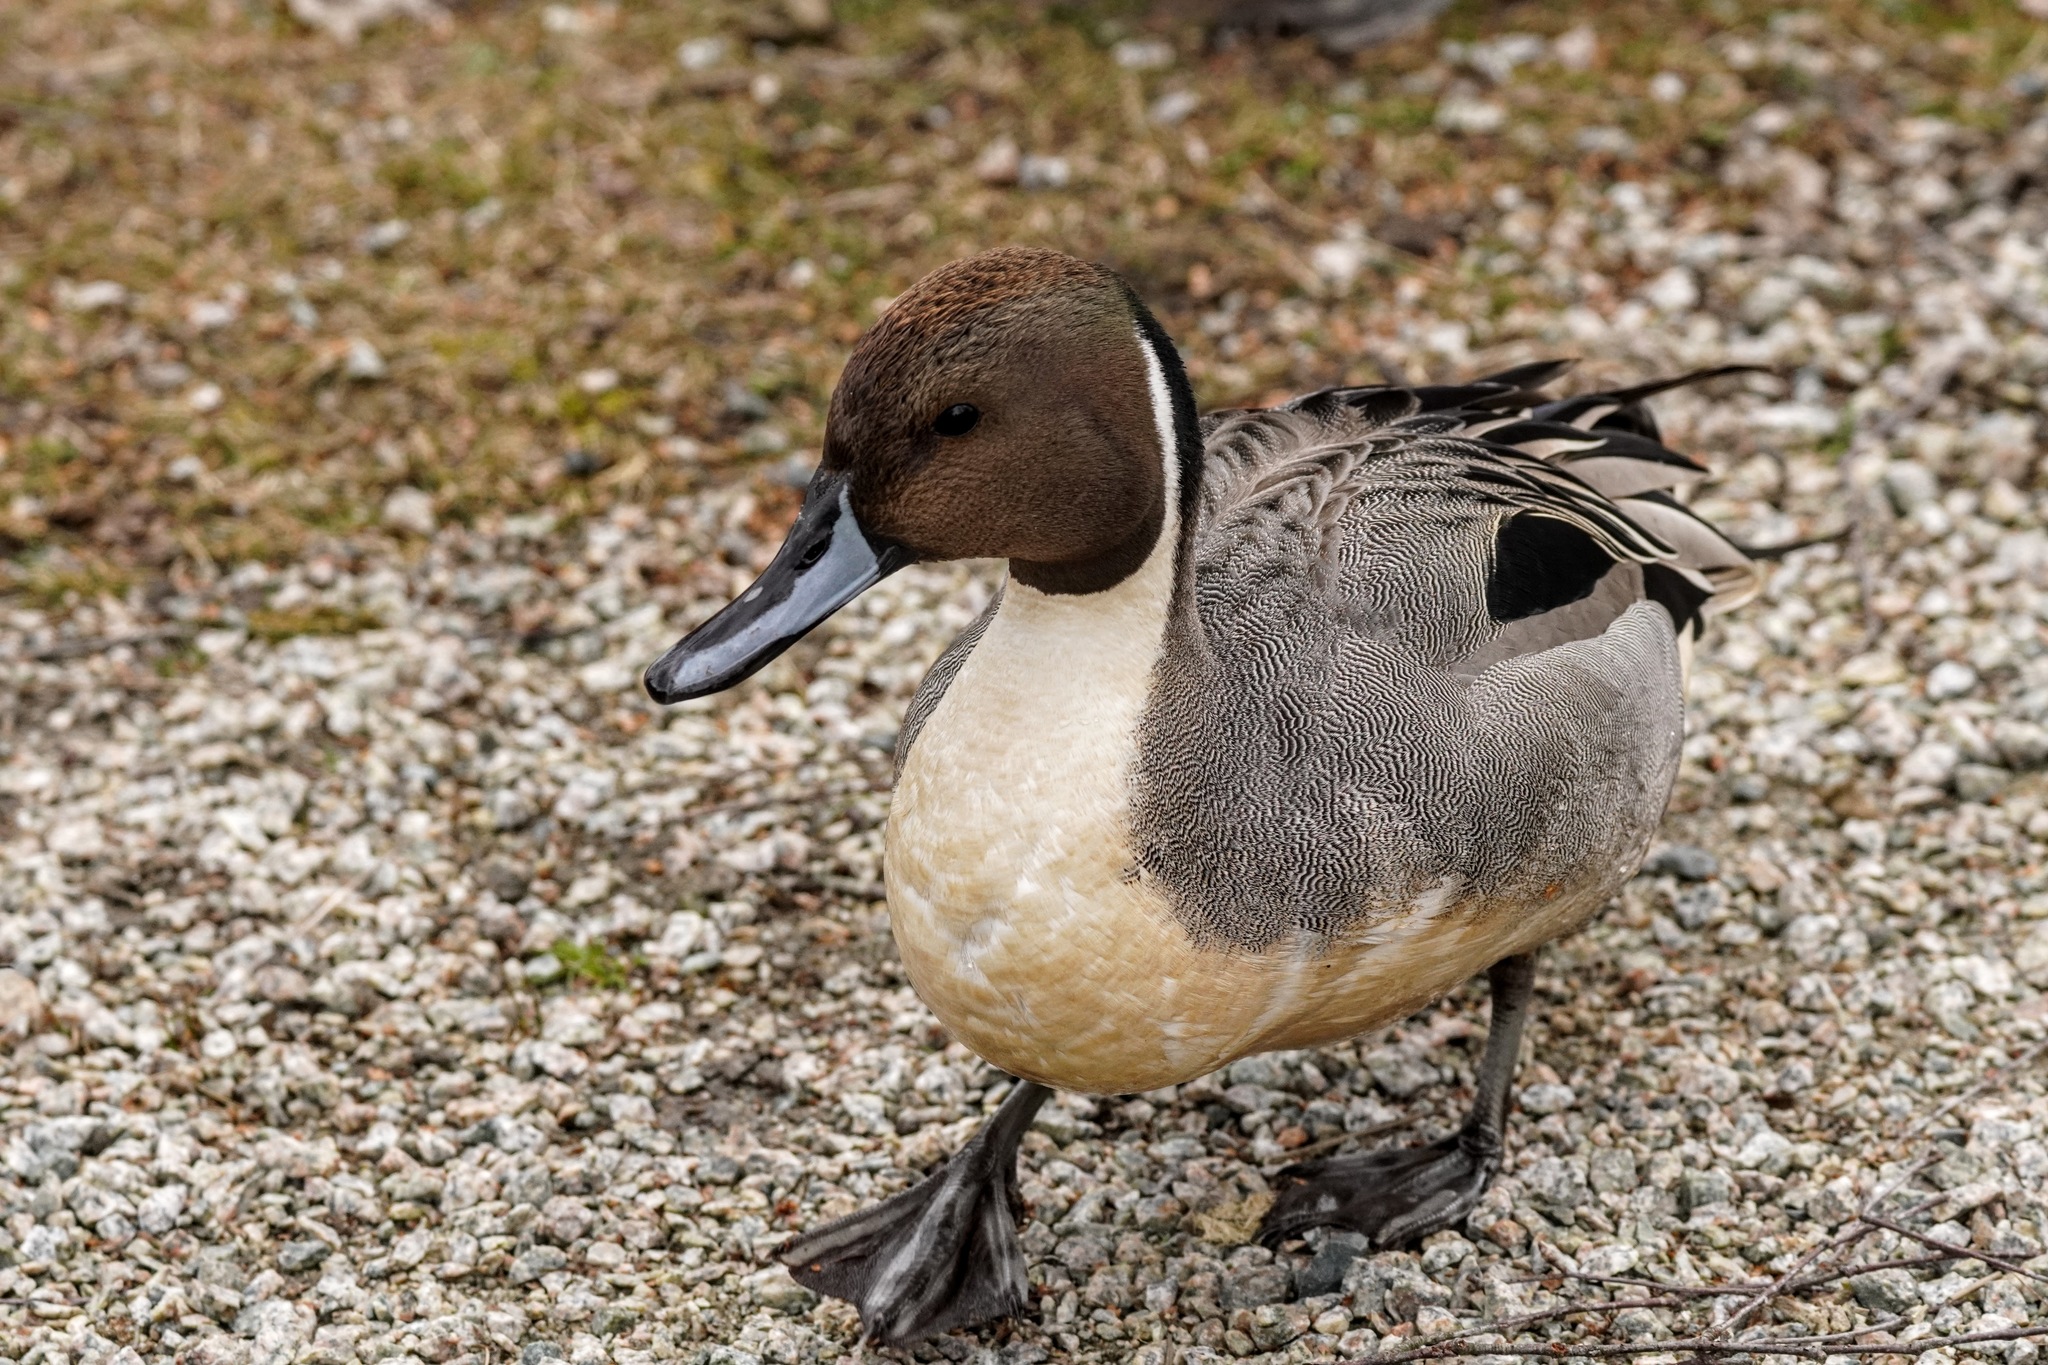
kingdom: Animalia
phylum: Chordata
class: Aves
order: Anseriformes
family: Anatidae
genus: Anas
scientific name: Anas acuta
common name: Northern pintail
